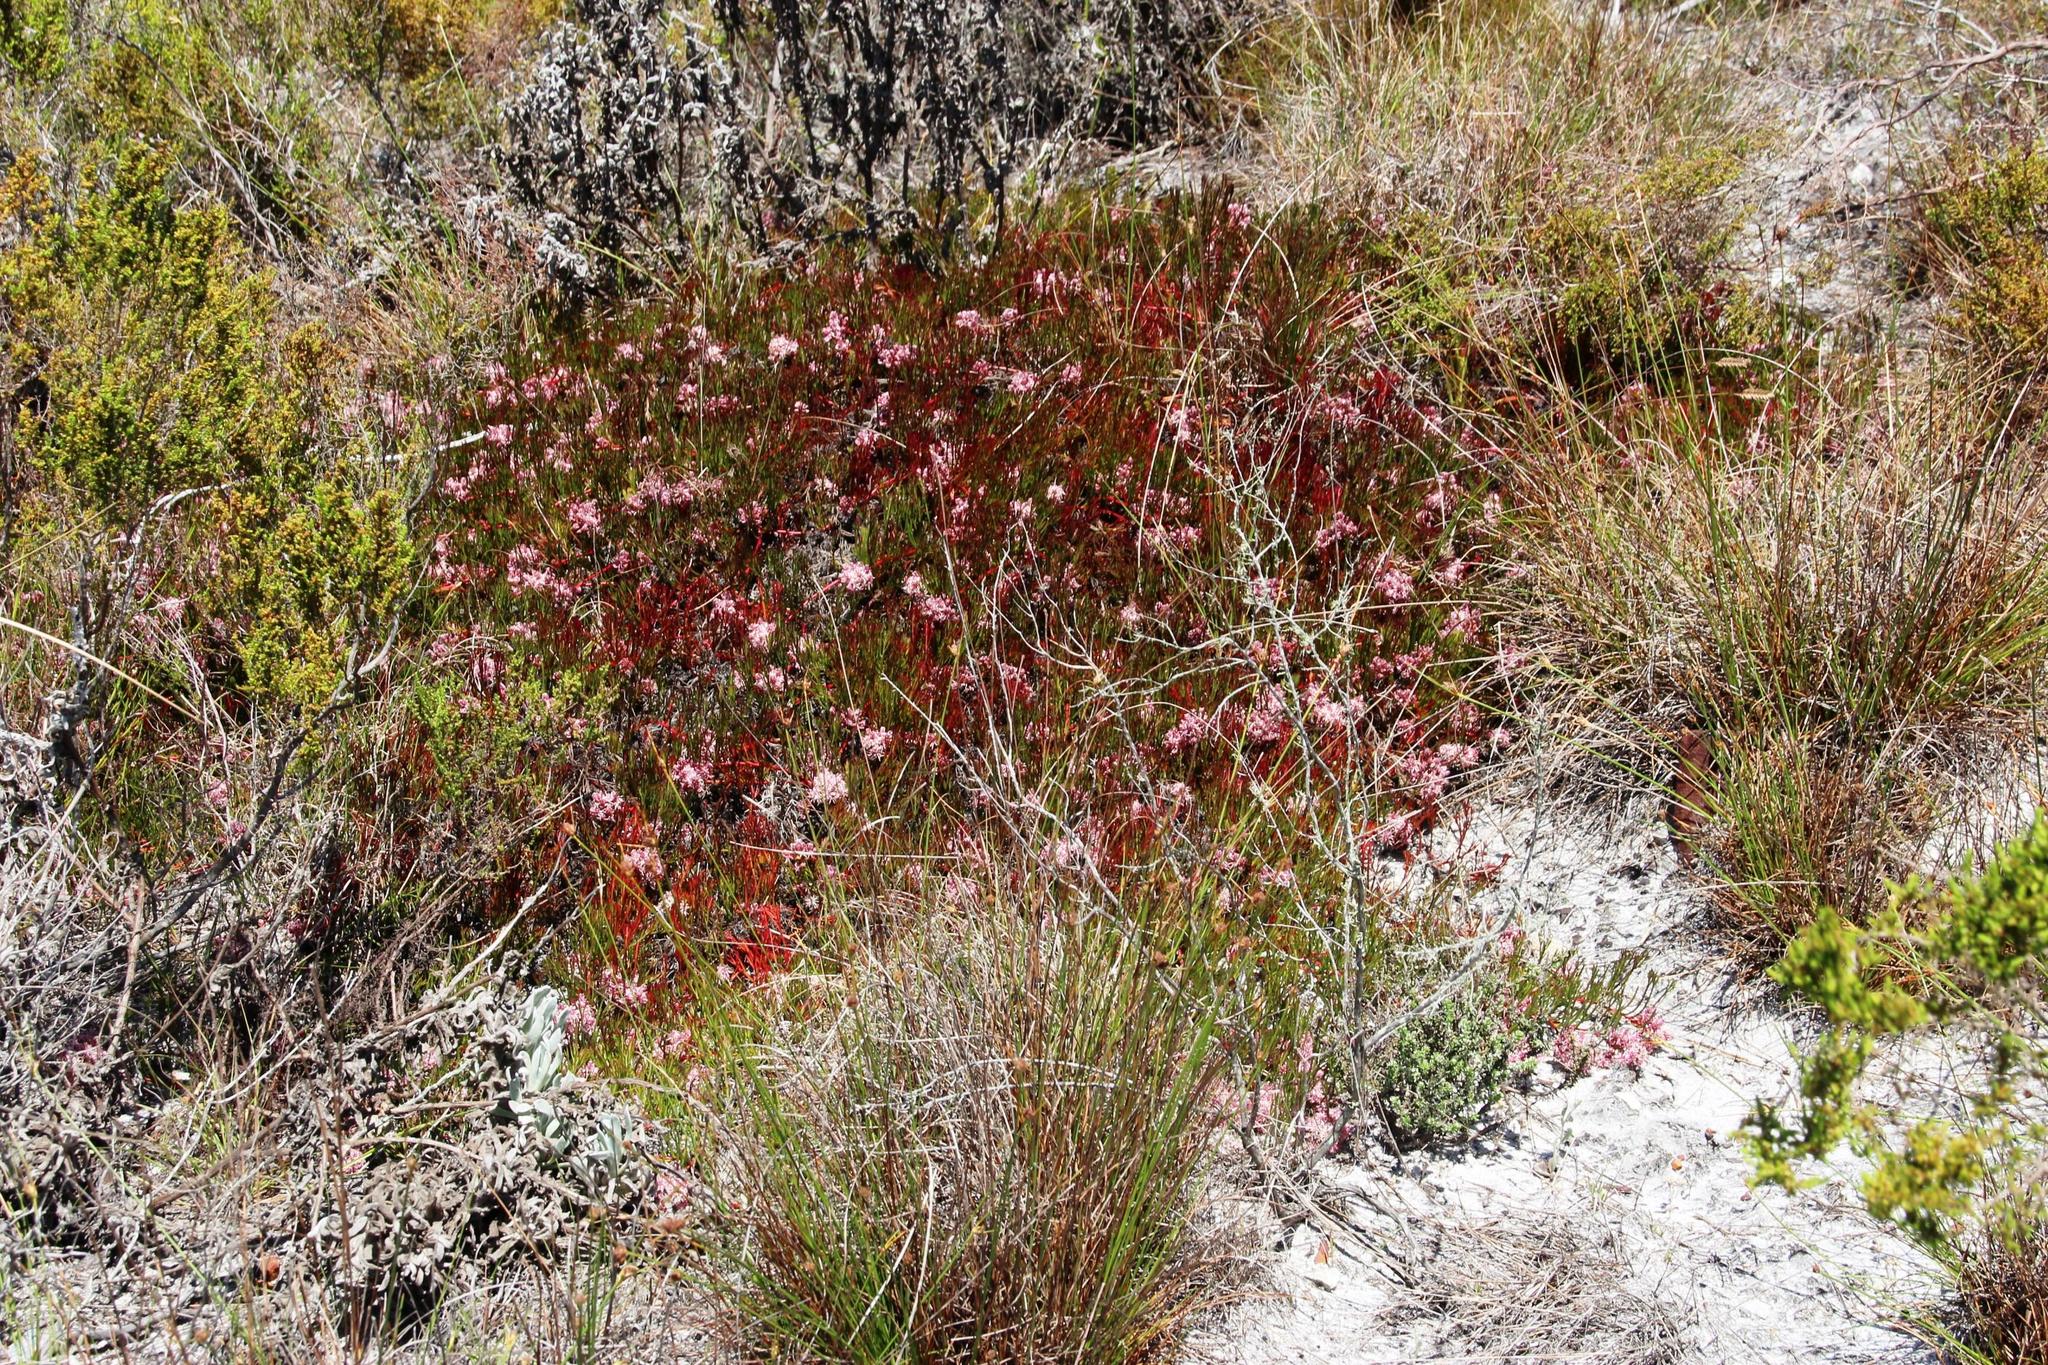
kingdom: Plantae
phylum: Tracheophyta
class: Magnoliopsida
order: Proteales
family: Proteaceae
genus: Serruria
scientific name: Serruria rubricaulis
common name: Red-stem spiderhead
